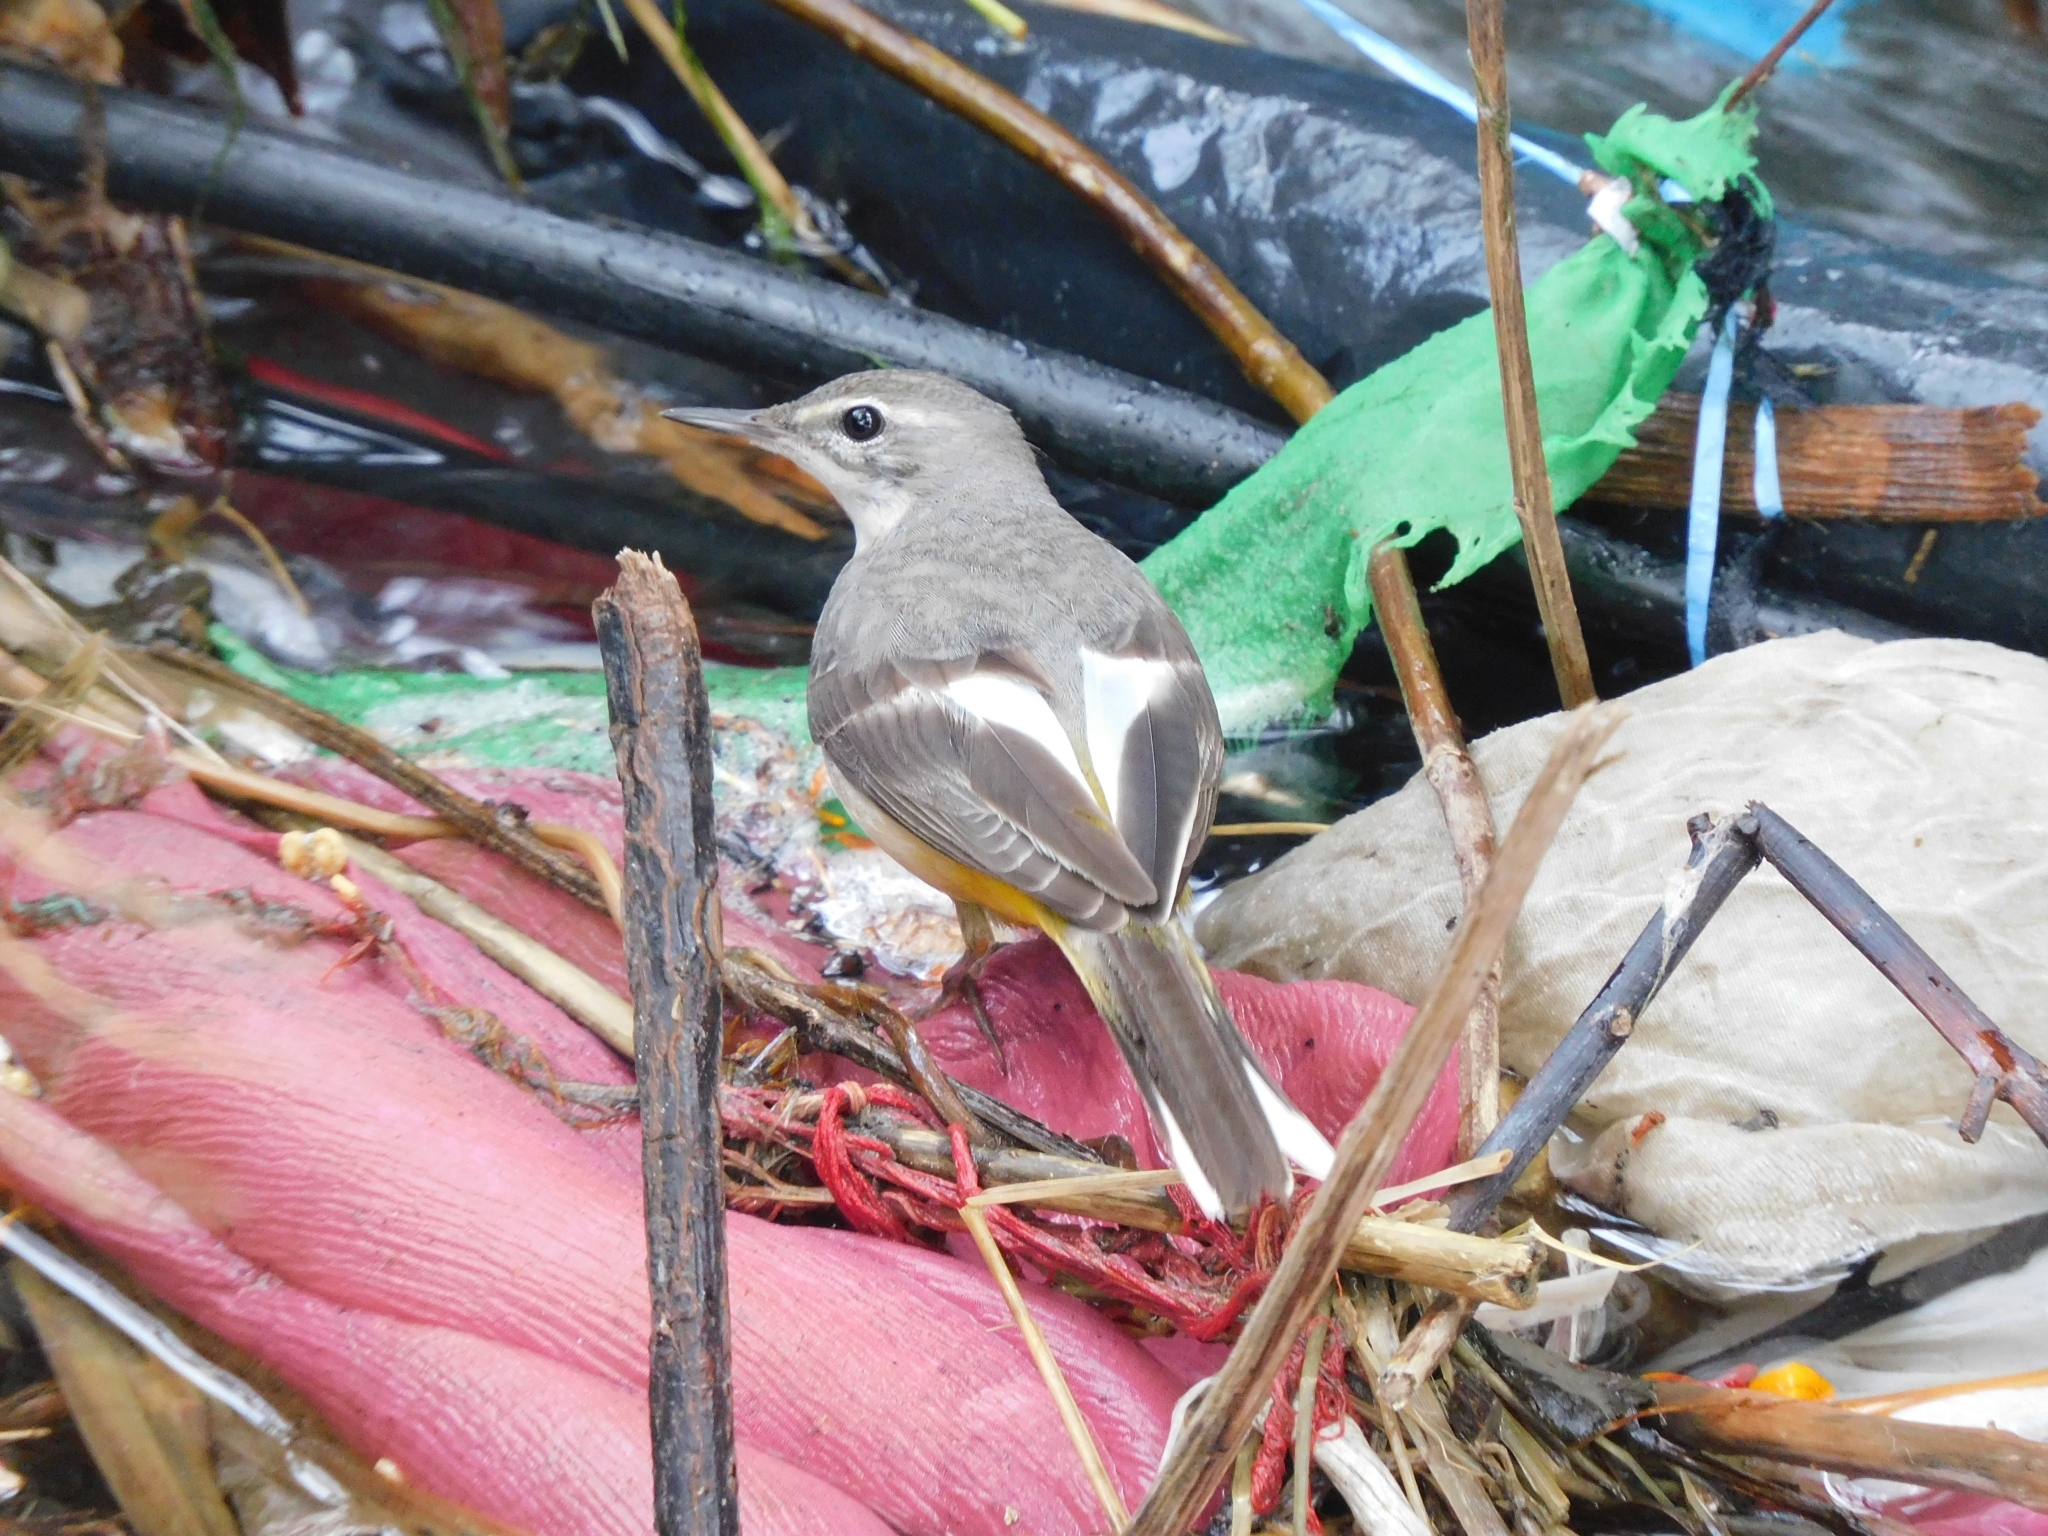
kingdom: Animalia
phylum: Chordata
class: Aves
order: Passeriformes
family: Motacillidae
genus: Motacilla
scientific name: Motacilla cinerea
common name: Grey wagtail
